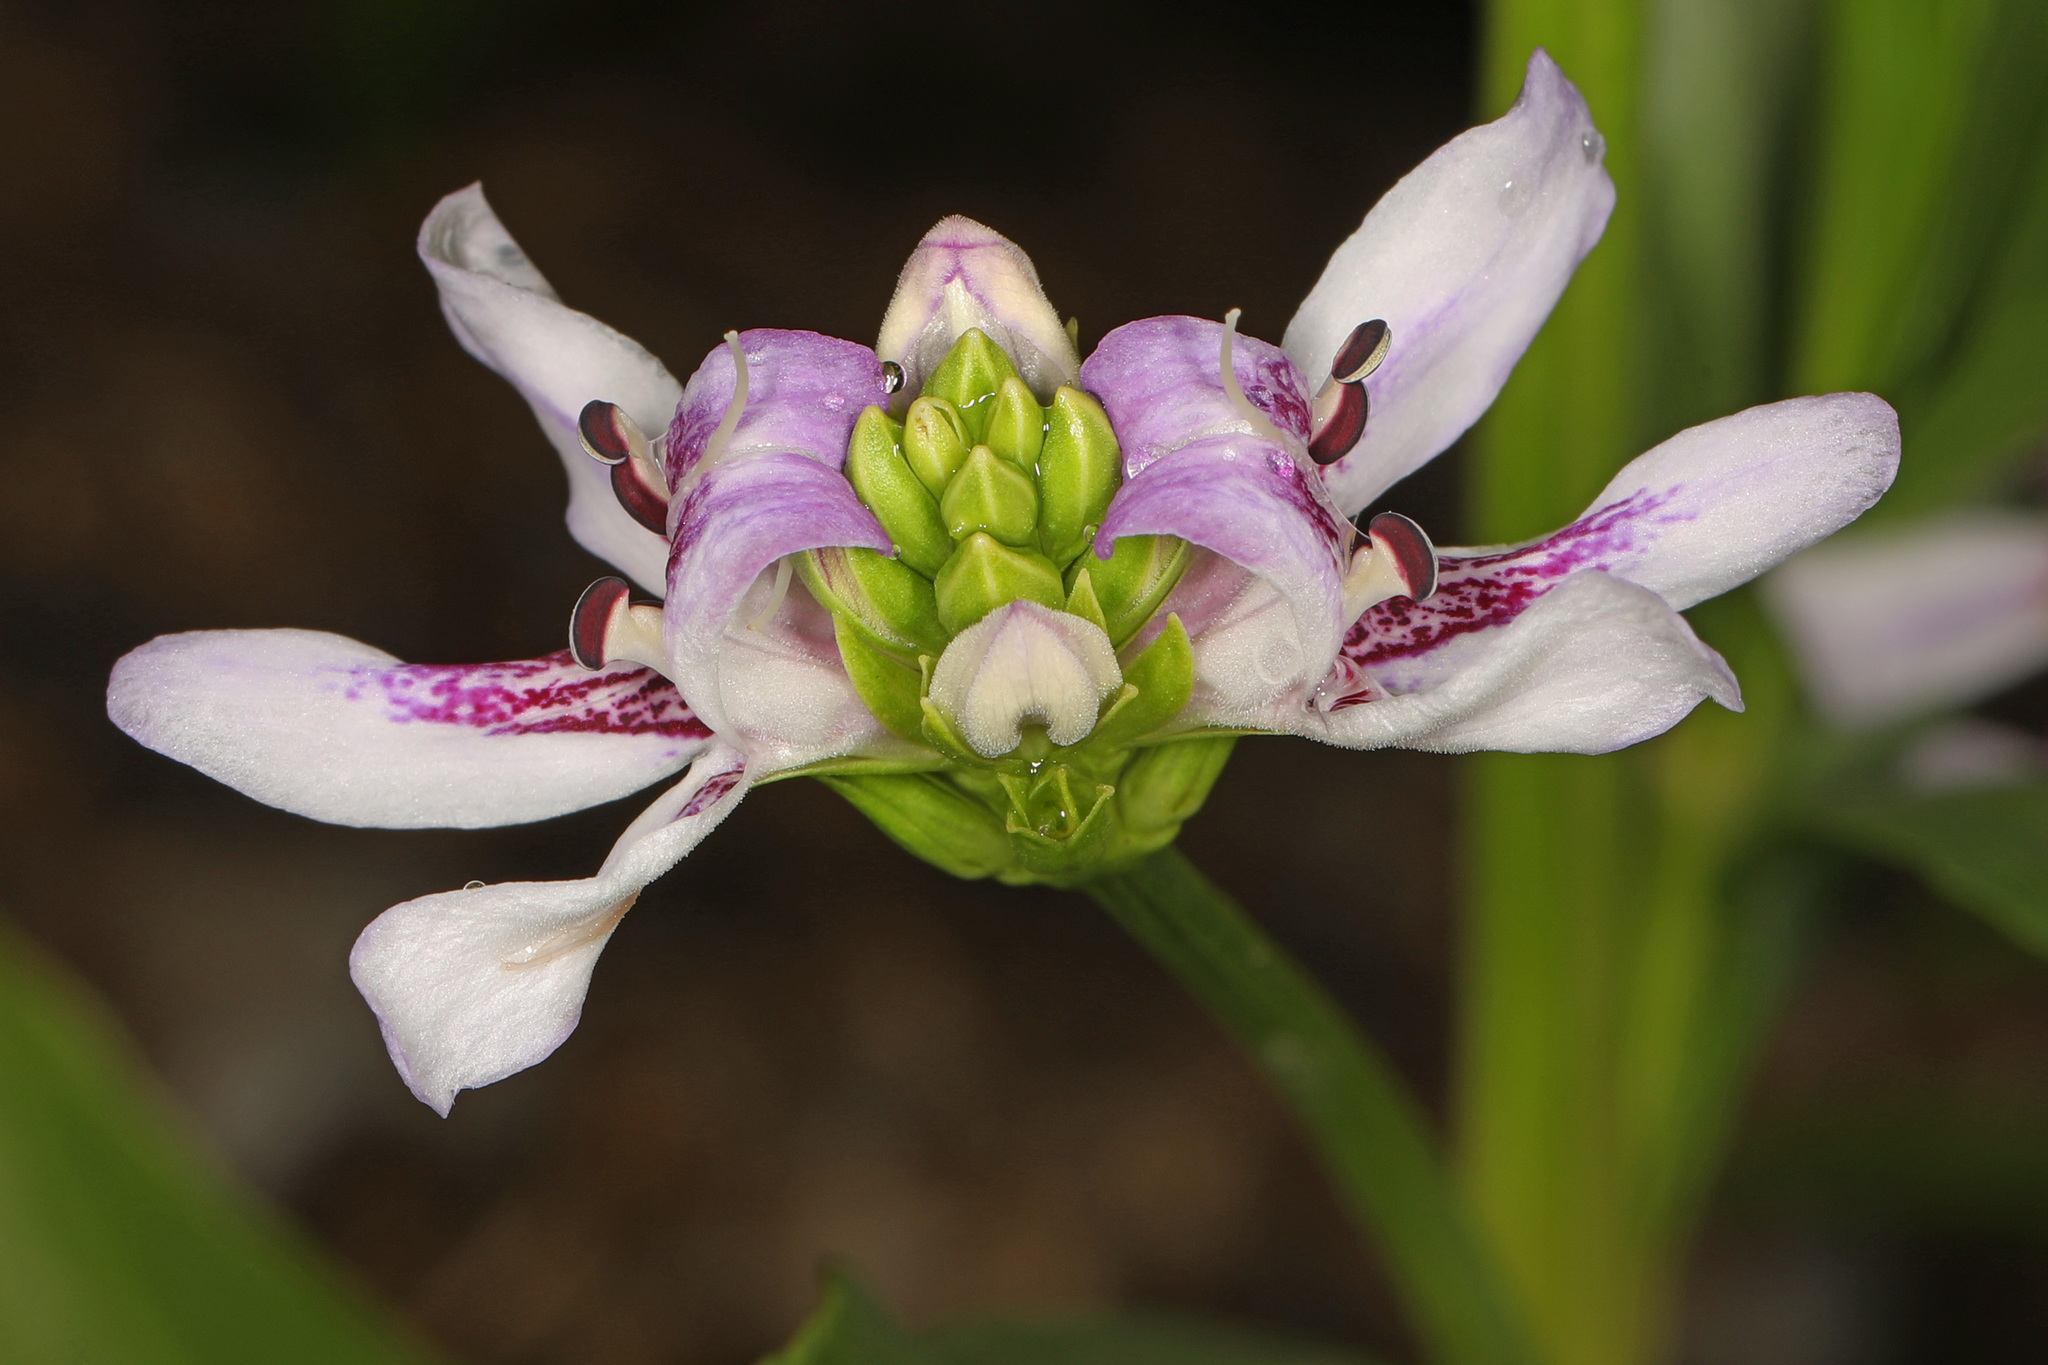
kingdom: Plantae
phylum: Tracheophyta
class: Magnoliopsida
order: Lamiales
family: Acanthaceae
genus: Dianthera
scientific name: Dianthera americana
